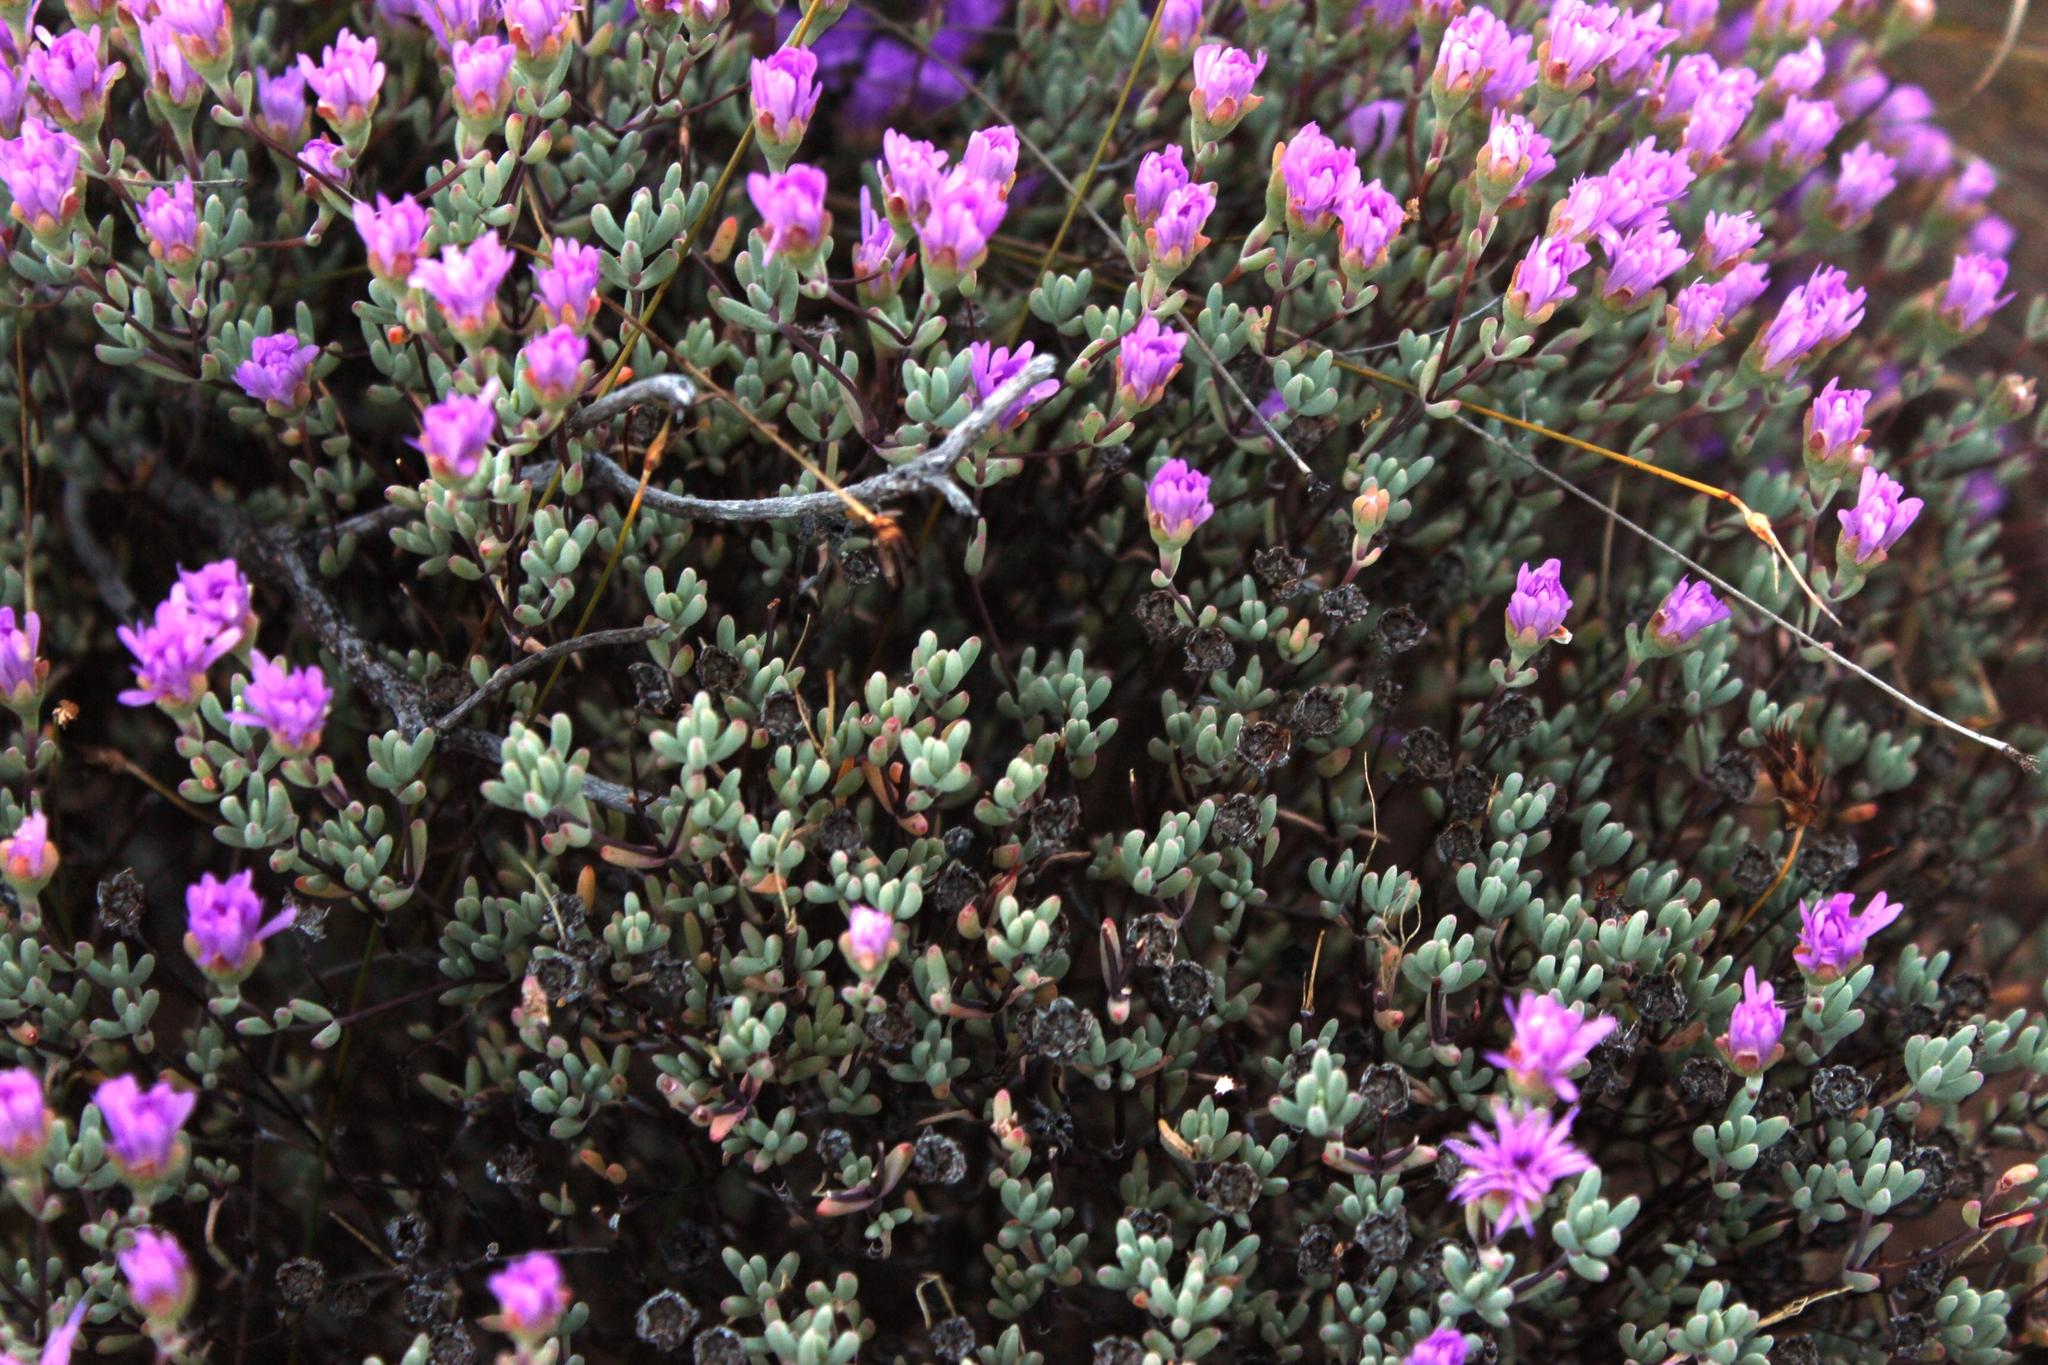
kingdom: Plantae
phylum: Tracheophyta
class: Magnoliopsida
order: Caryophyllales
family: Aizoaceae
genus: Lampranthus
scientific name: Lampranthus leptosepalus
